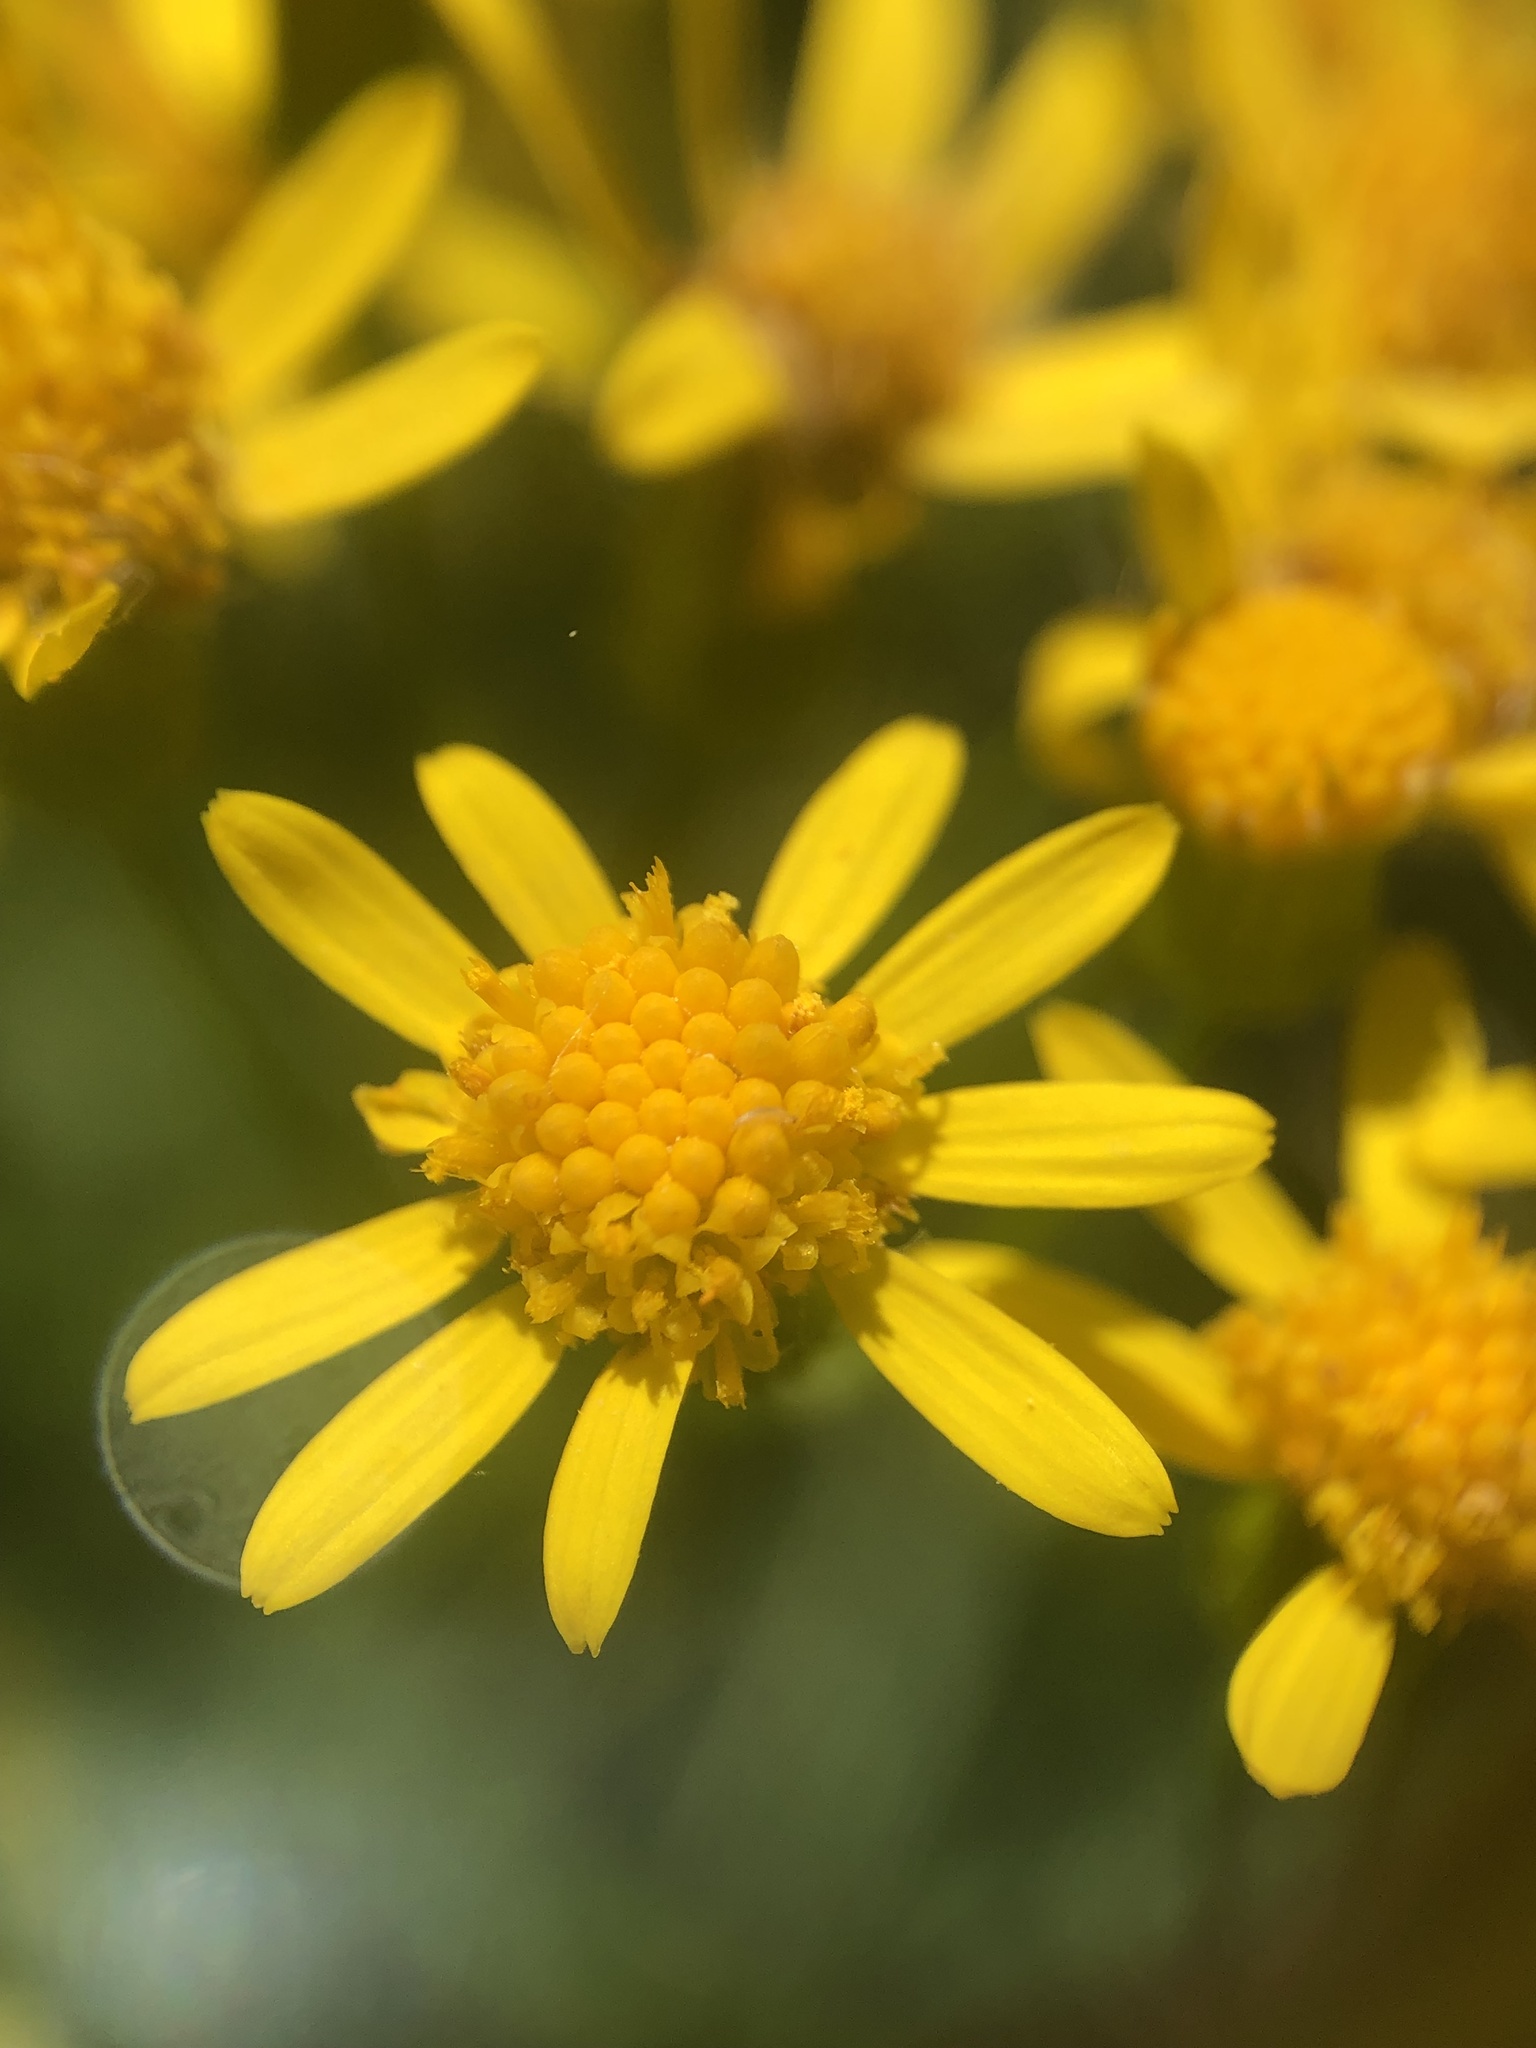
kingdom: Plantae
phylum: Tracheophyta
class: Magnoliopsida
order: Asterales
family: Asteraceae
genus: Packera
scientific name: Packera anonyma
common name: Small ragwort
